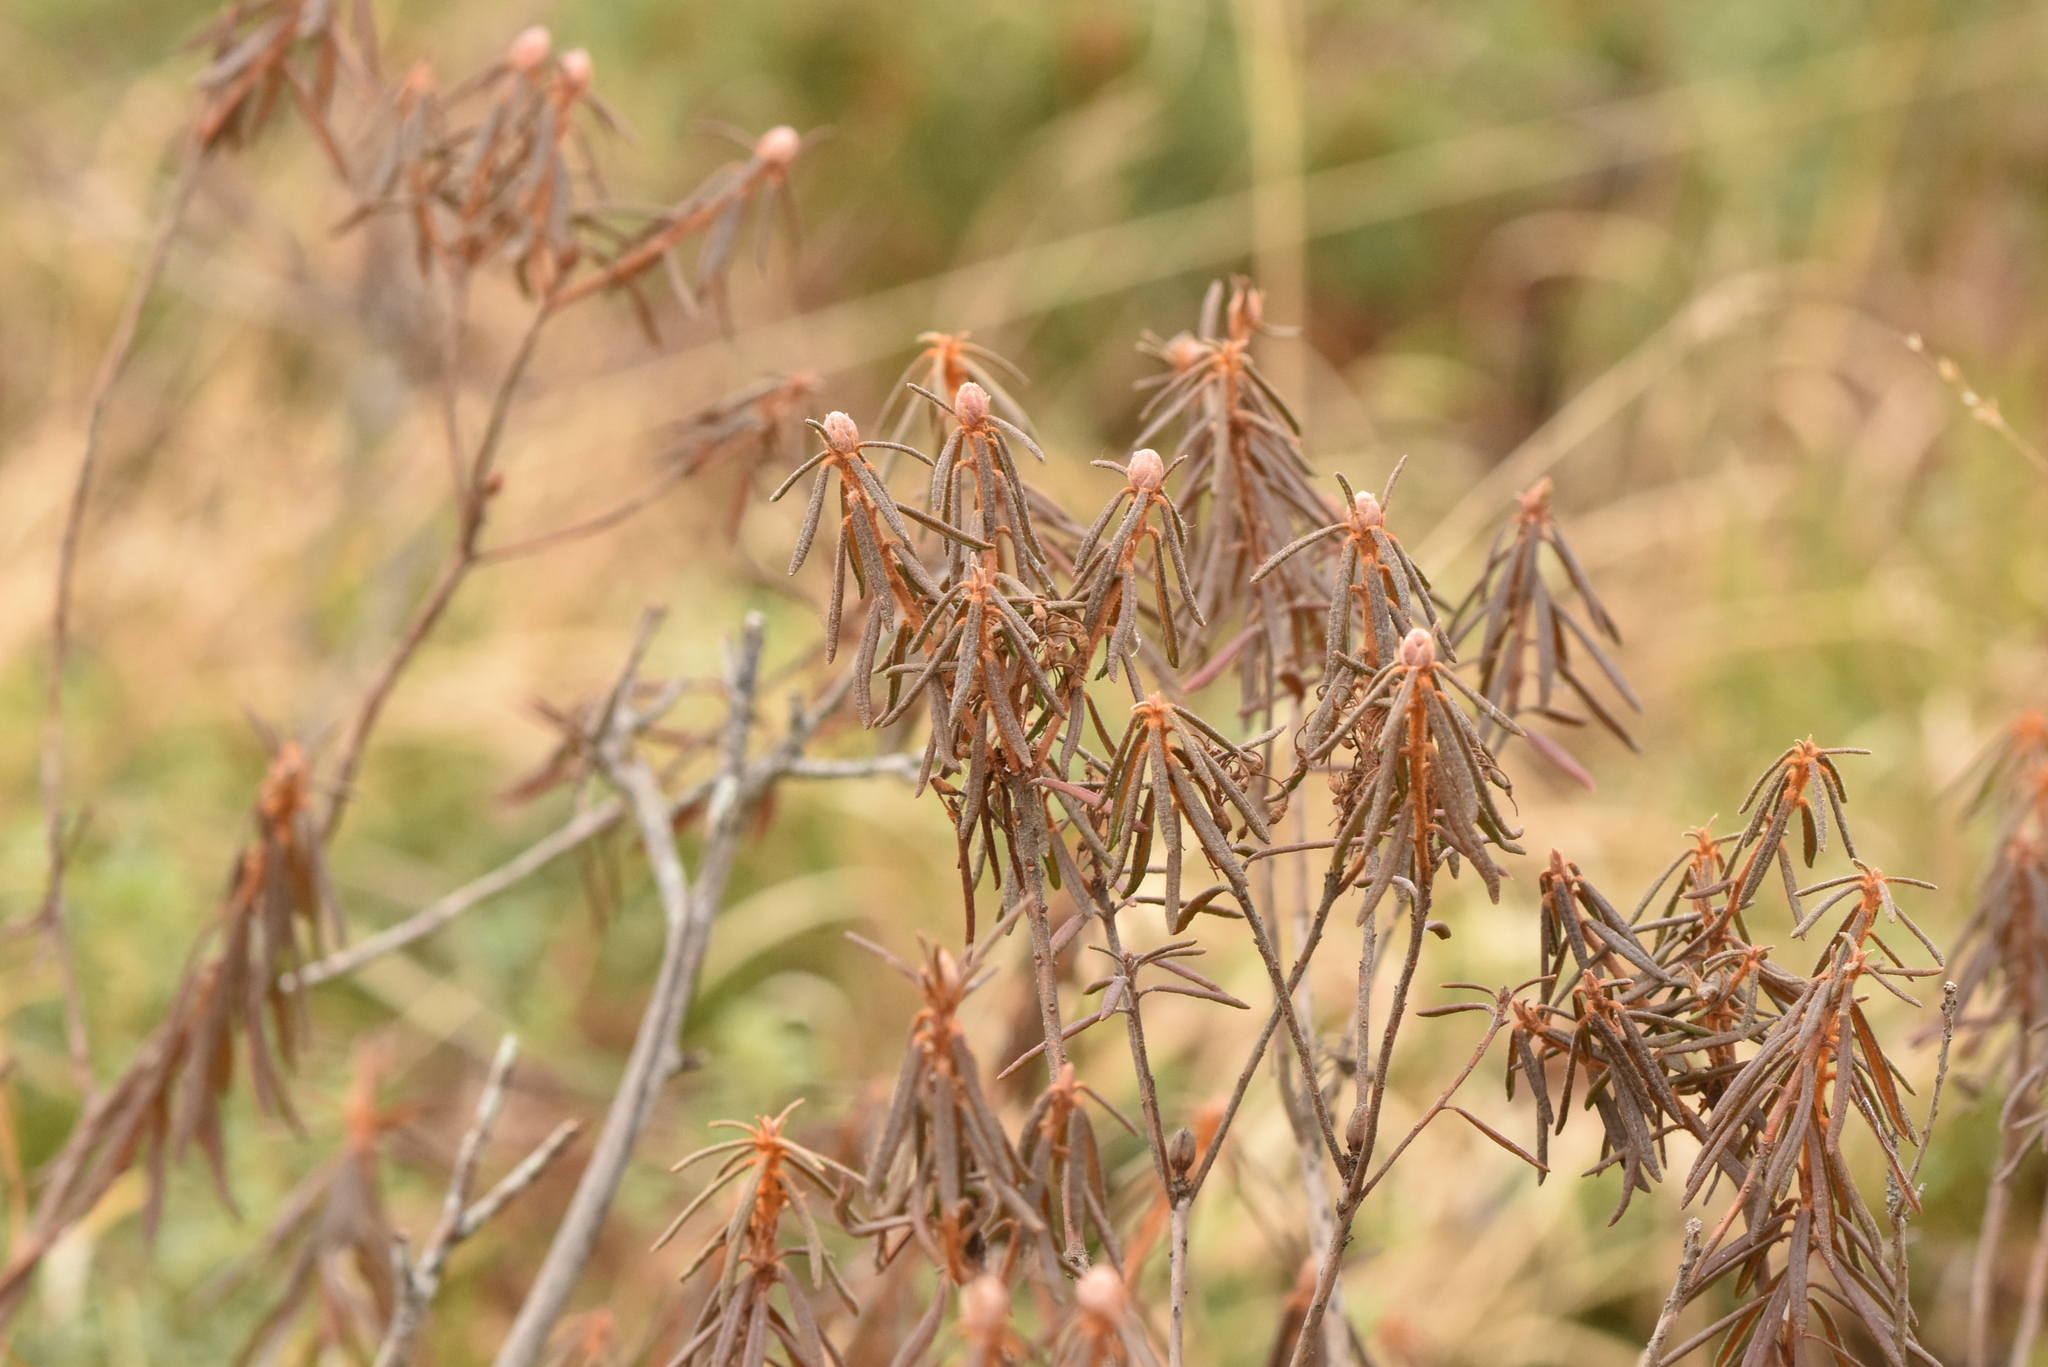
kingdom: Plantae
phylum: Tracheophyta
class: Magnoliopsida
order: Ericales
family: Ericaceae
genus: Rhododendron
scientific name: Rhododendron tomentosum
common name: Marsh labrador tea
